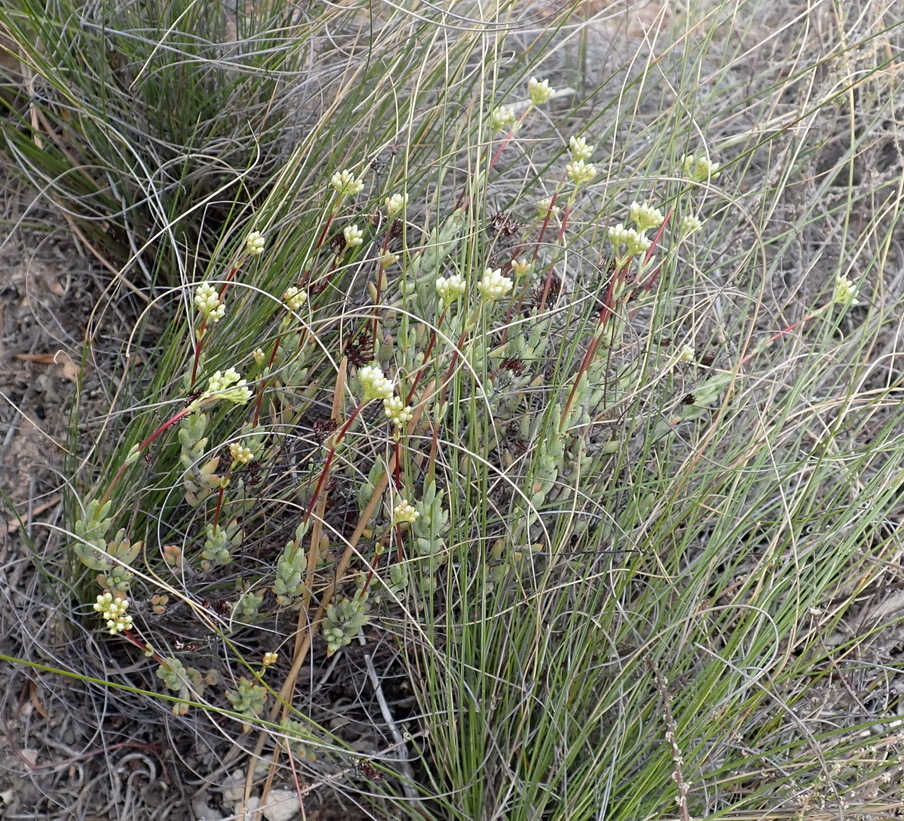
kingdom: Plantae
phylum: Tracheophyta
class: Magnoliopsida
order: Saxifragales
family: Crassulaceae
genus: Crassula
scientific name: Crassula biplanata
